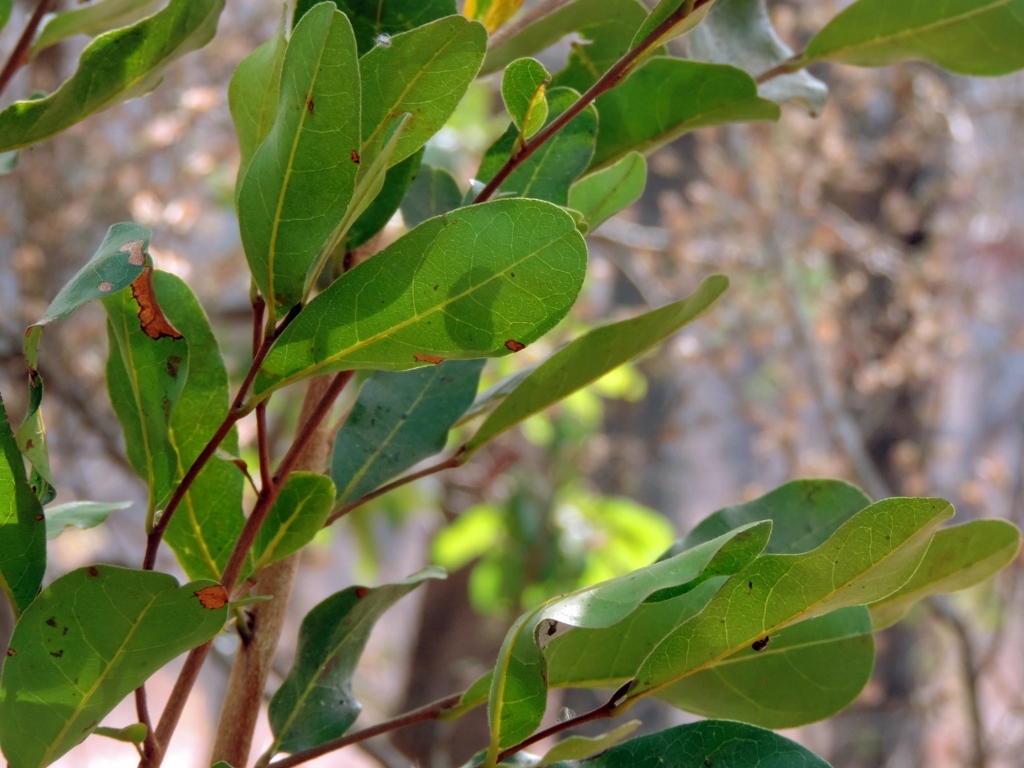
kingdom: Plantae
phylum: Tracheophyta
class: Magnoliopsida
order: Magnoliales
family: Annonaceae
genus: Hexalobus
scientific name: Hexalobus monopetalus
